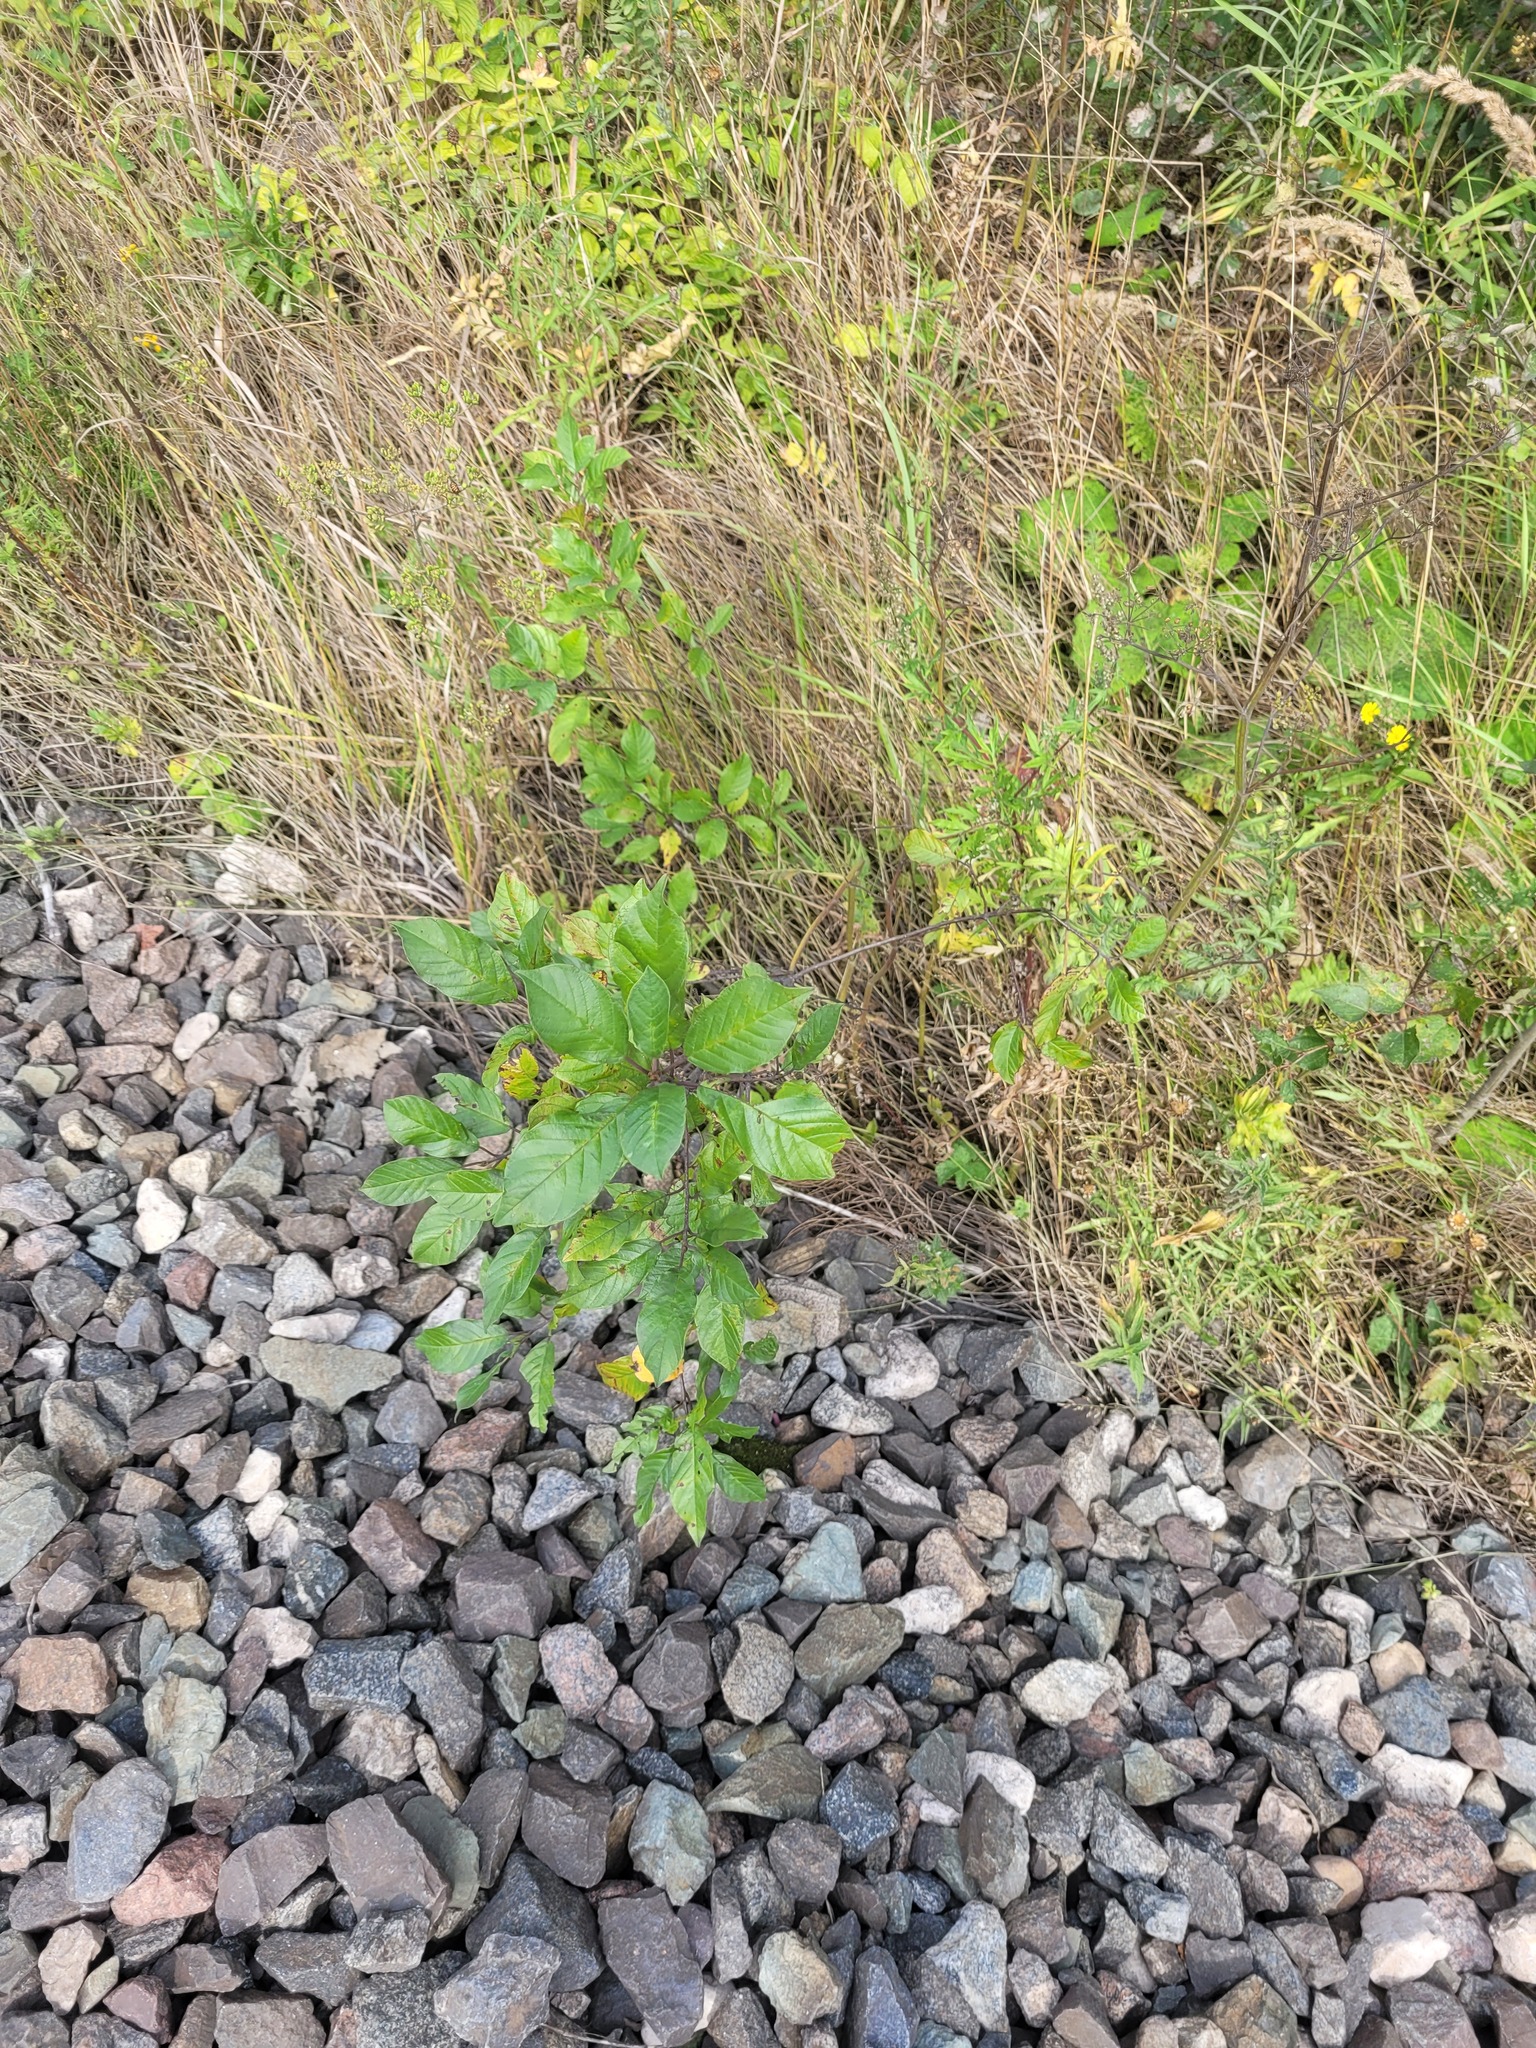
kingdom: Plantae
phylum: Tracheophyta
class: Magnoliopsida
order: Rosales
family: Rhamnaceae
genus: Frangula
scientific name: Frangula alnus
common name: Alder buckthorn
